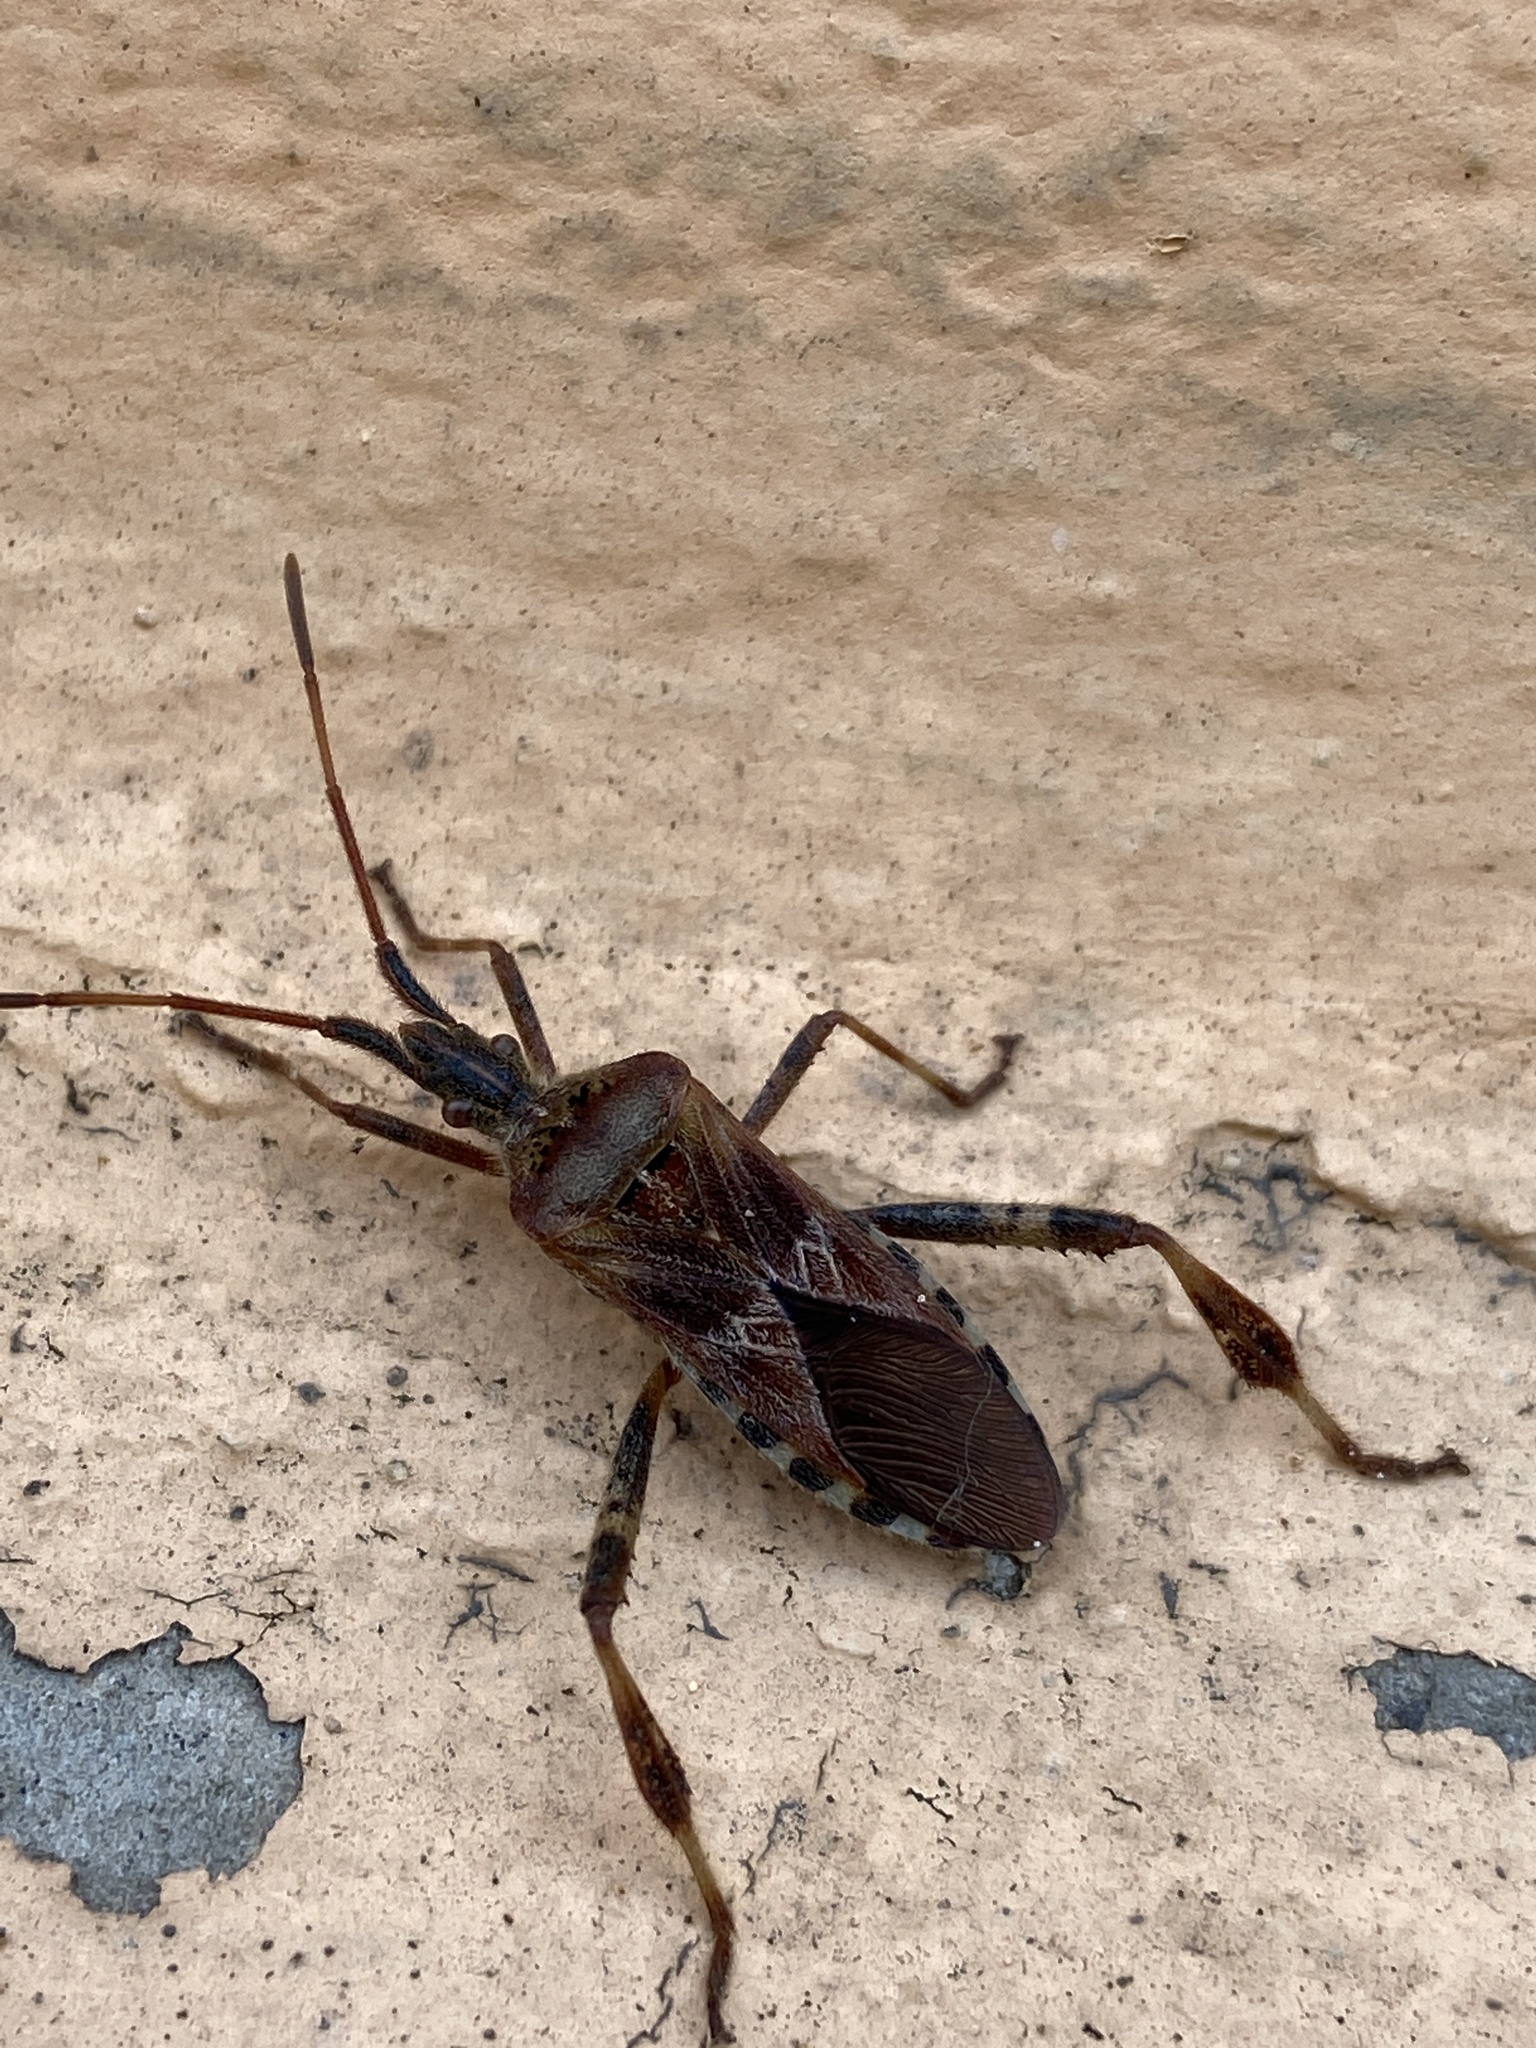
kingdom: Animalia
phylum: Arthropoda
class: Insecta
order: Hemiptera
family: Coreidae
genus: Leptoglossus
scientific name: Leptoglossus occidentalis
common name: Western conifer-seed bug
